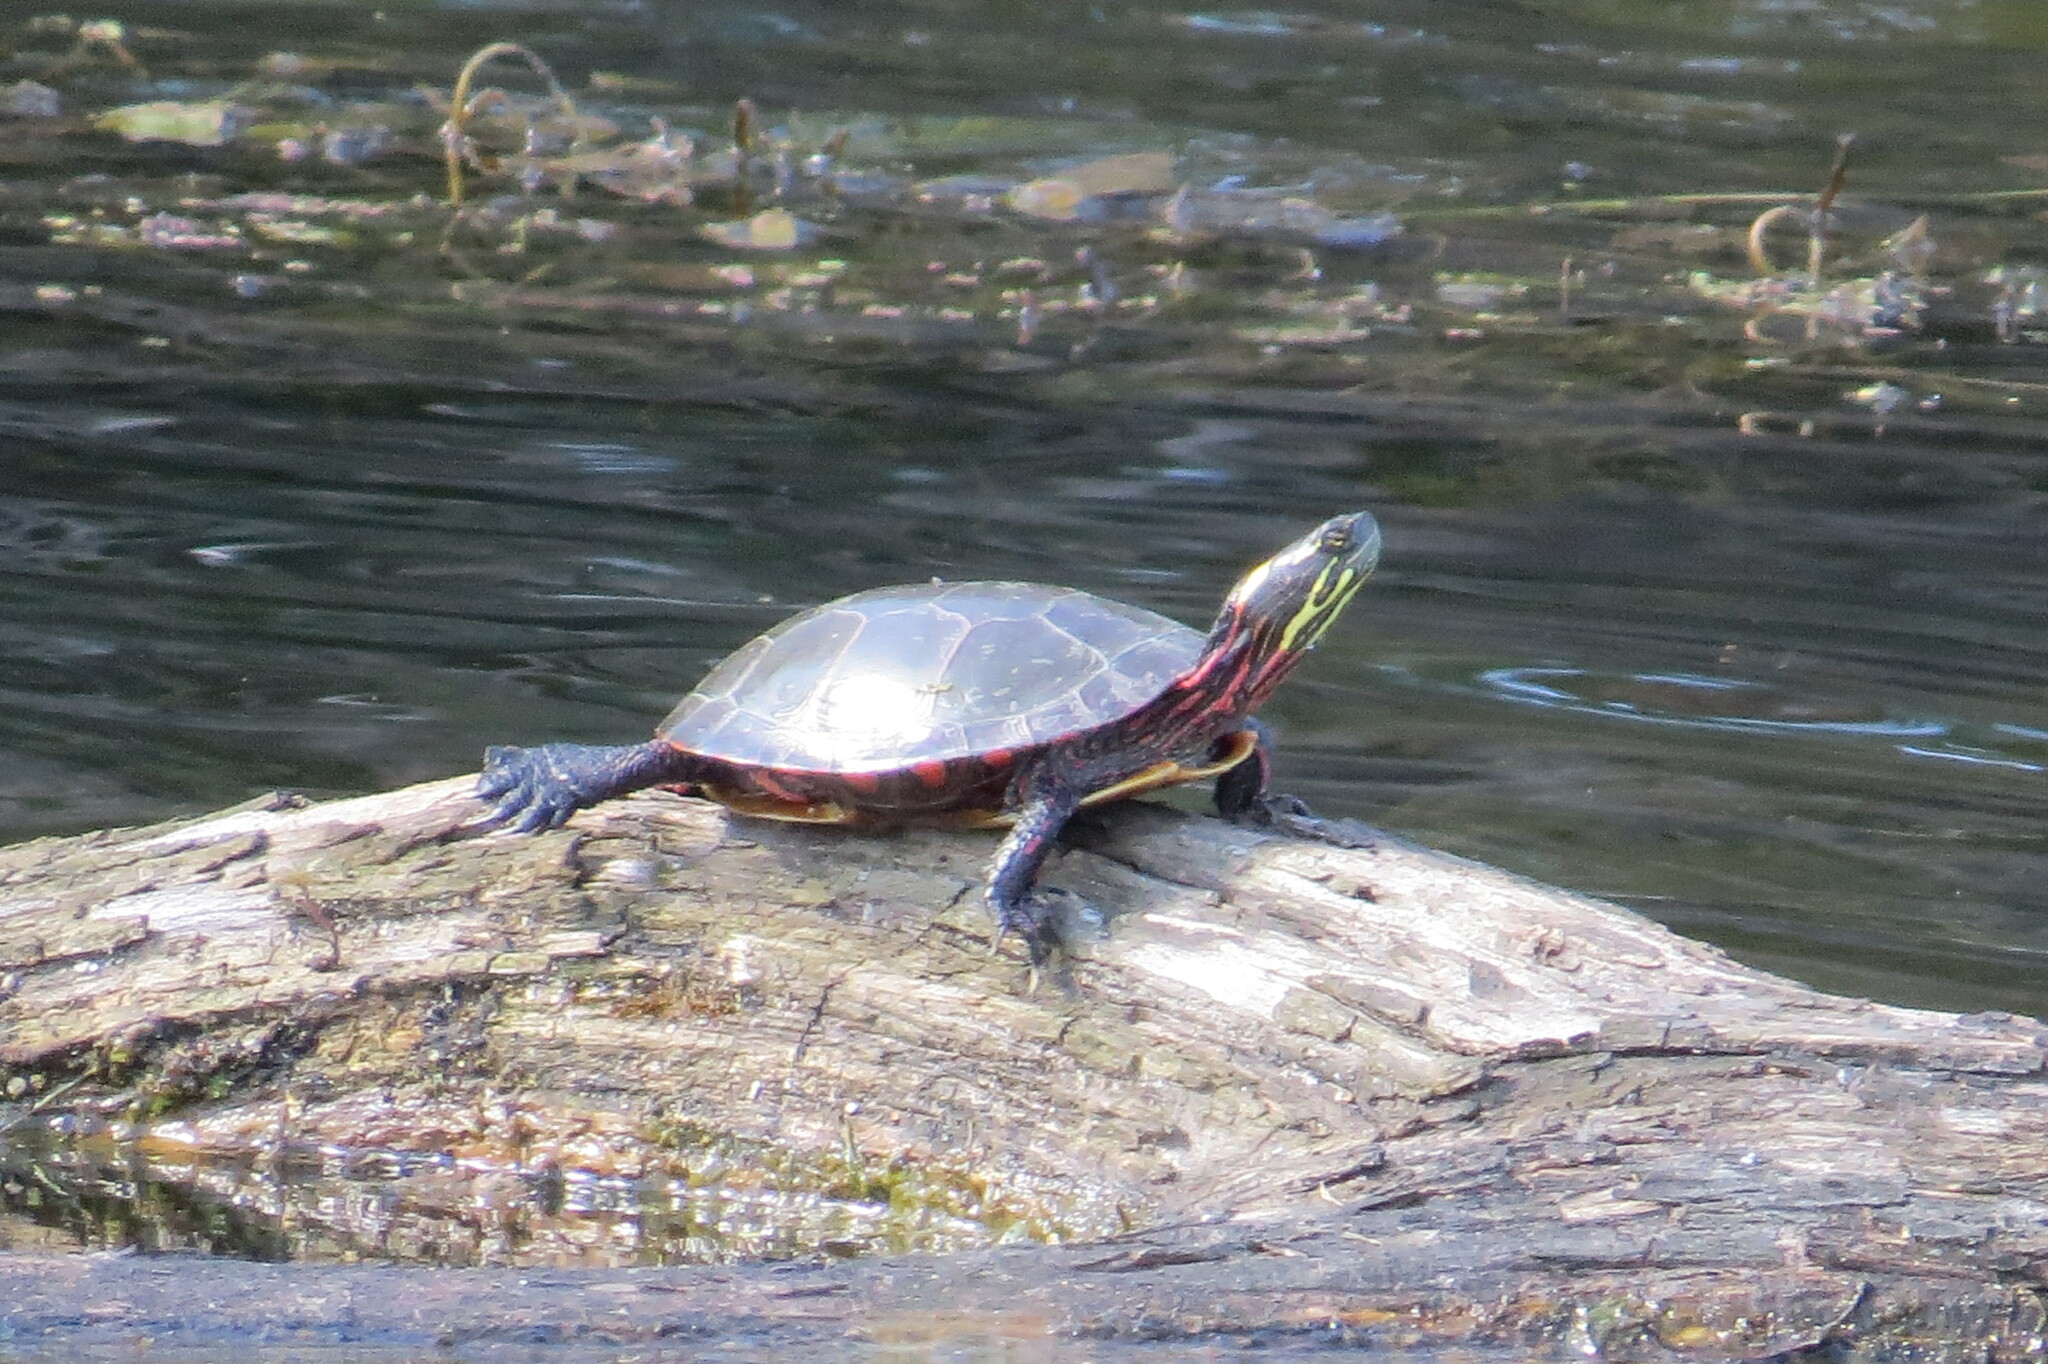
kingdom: Animalia
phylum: Chordata
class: Testudines
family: Emydidae
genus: Chrysemys
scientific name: Chrysemys picta
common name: Painted turtle
